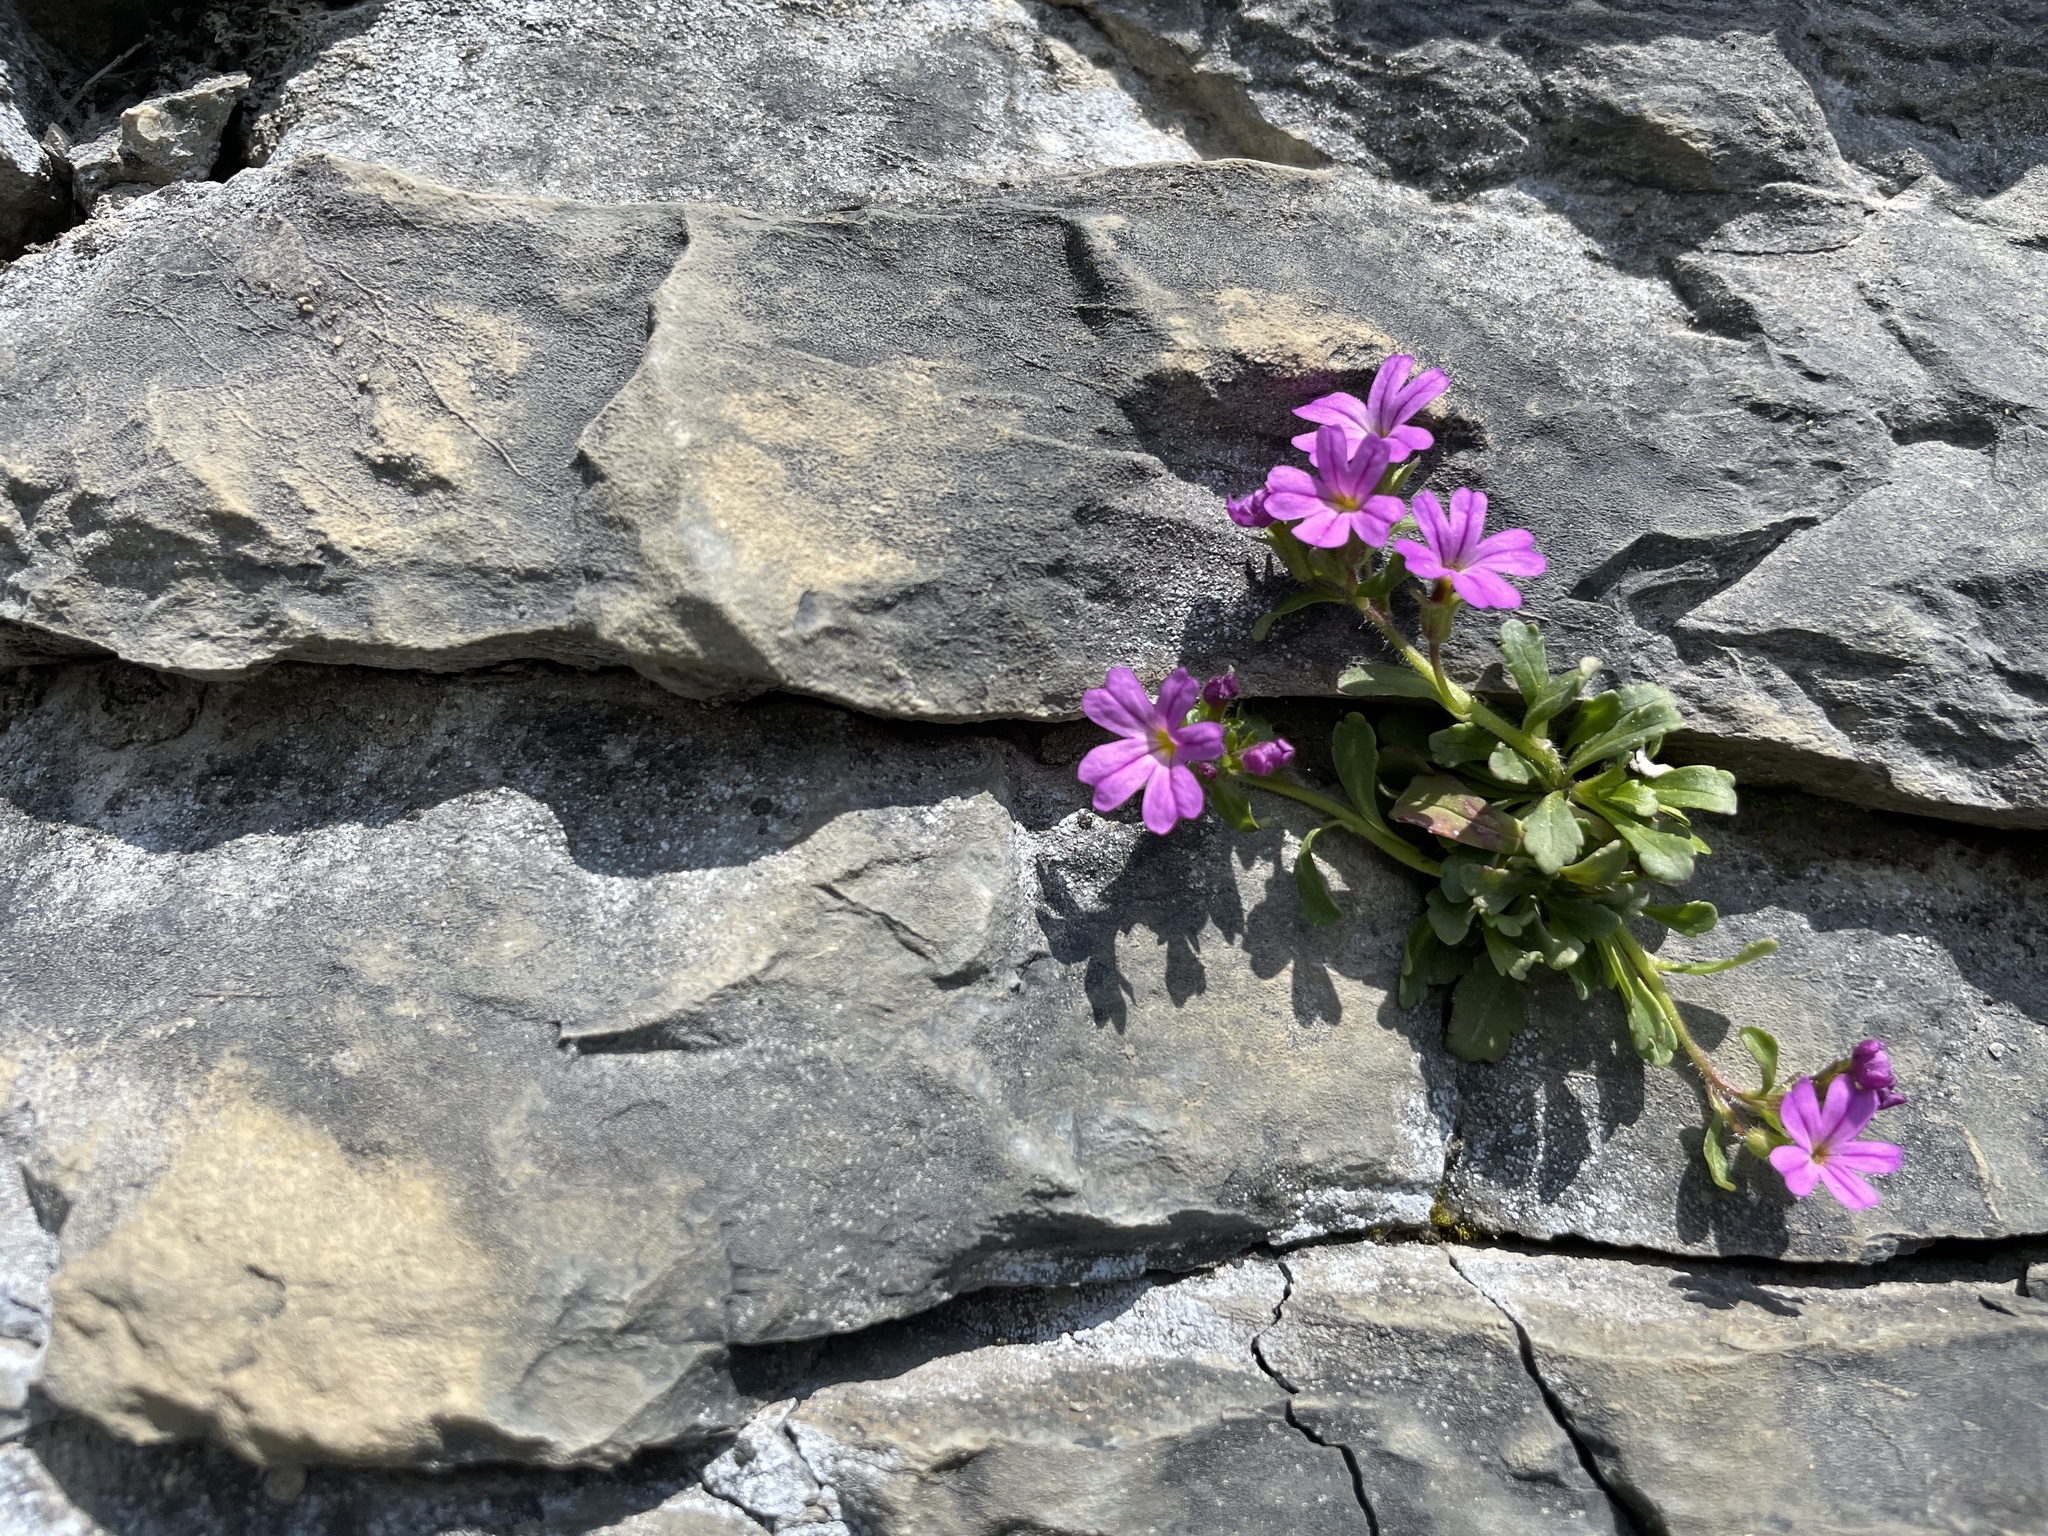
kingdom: Plantae
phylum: Tracheophyta
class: Magnoliopsida
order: Lamiales
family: Plantaginaceae
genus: Erinus
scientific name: Erinus alpinus
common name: Fairy foxglove
